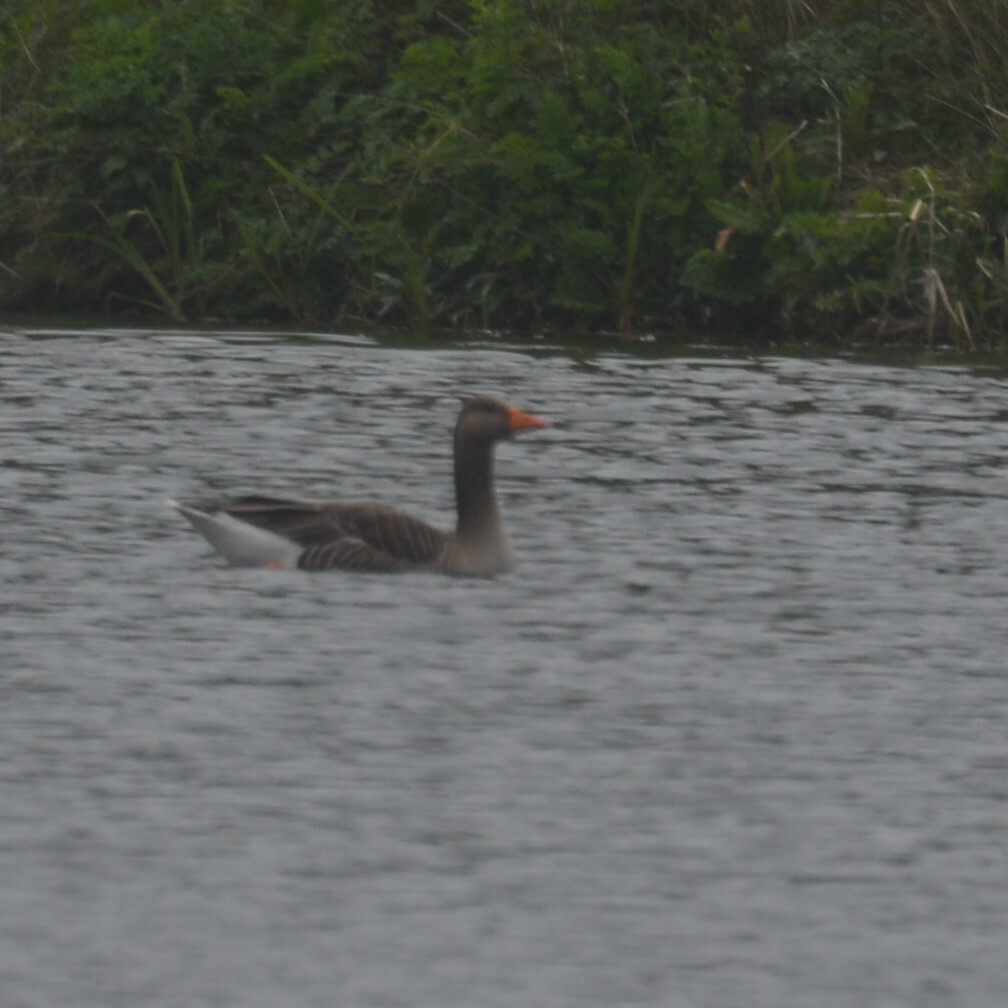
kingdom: Animalia
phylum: Chordata
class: Aves
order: Anseriformes
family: Anatidae
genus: Anser
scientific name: Anser anser
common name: Greylag goose
